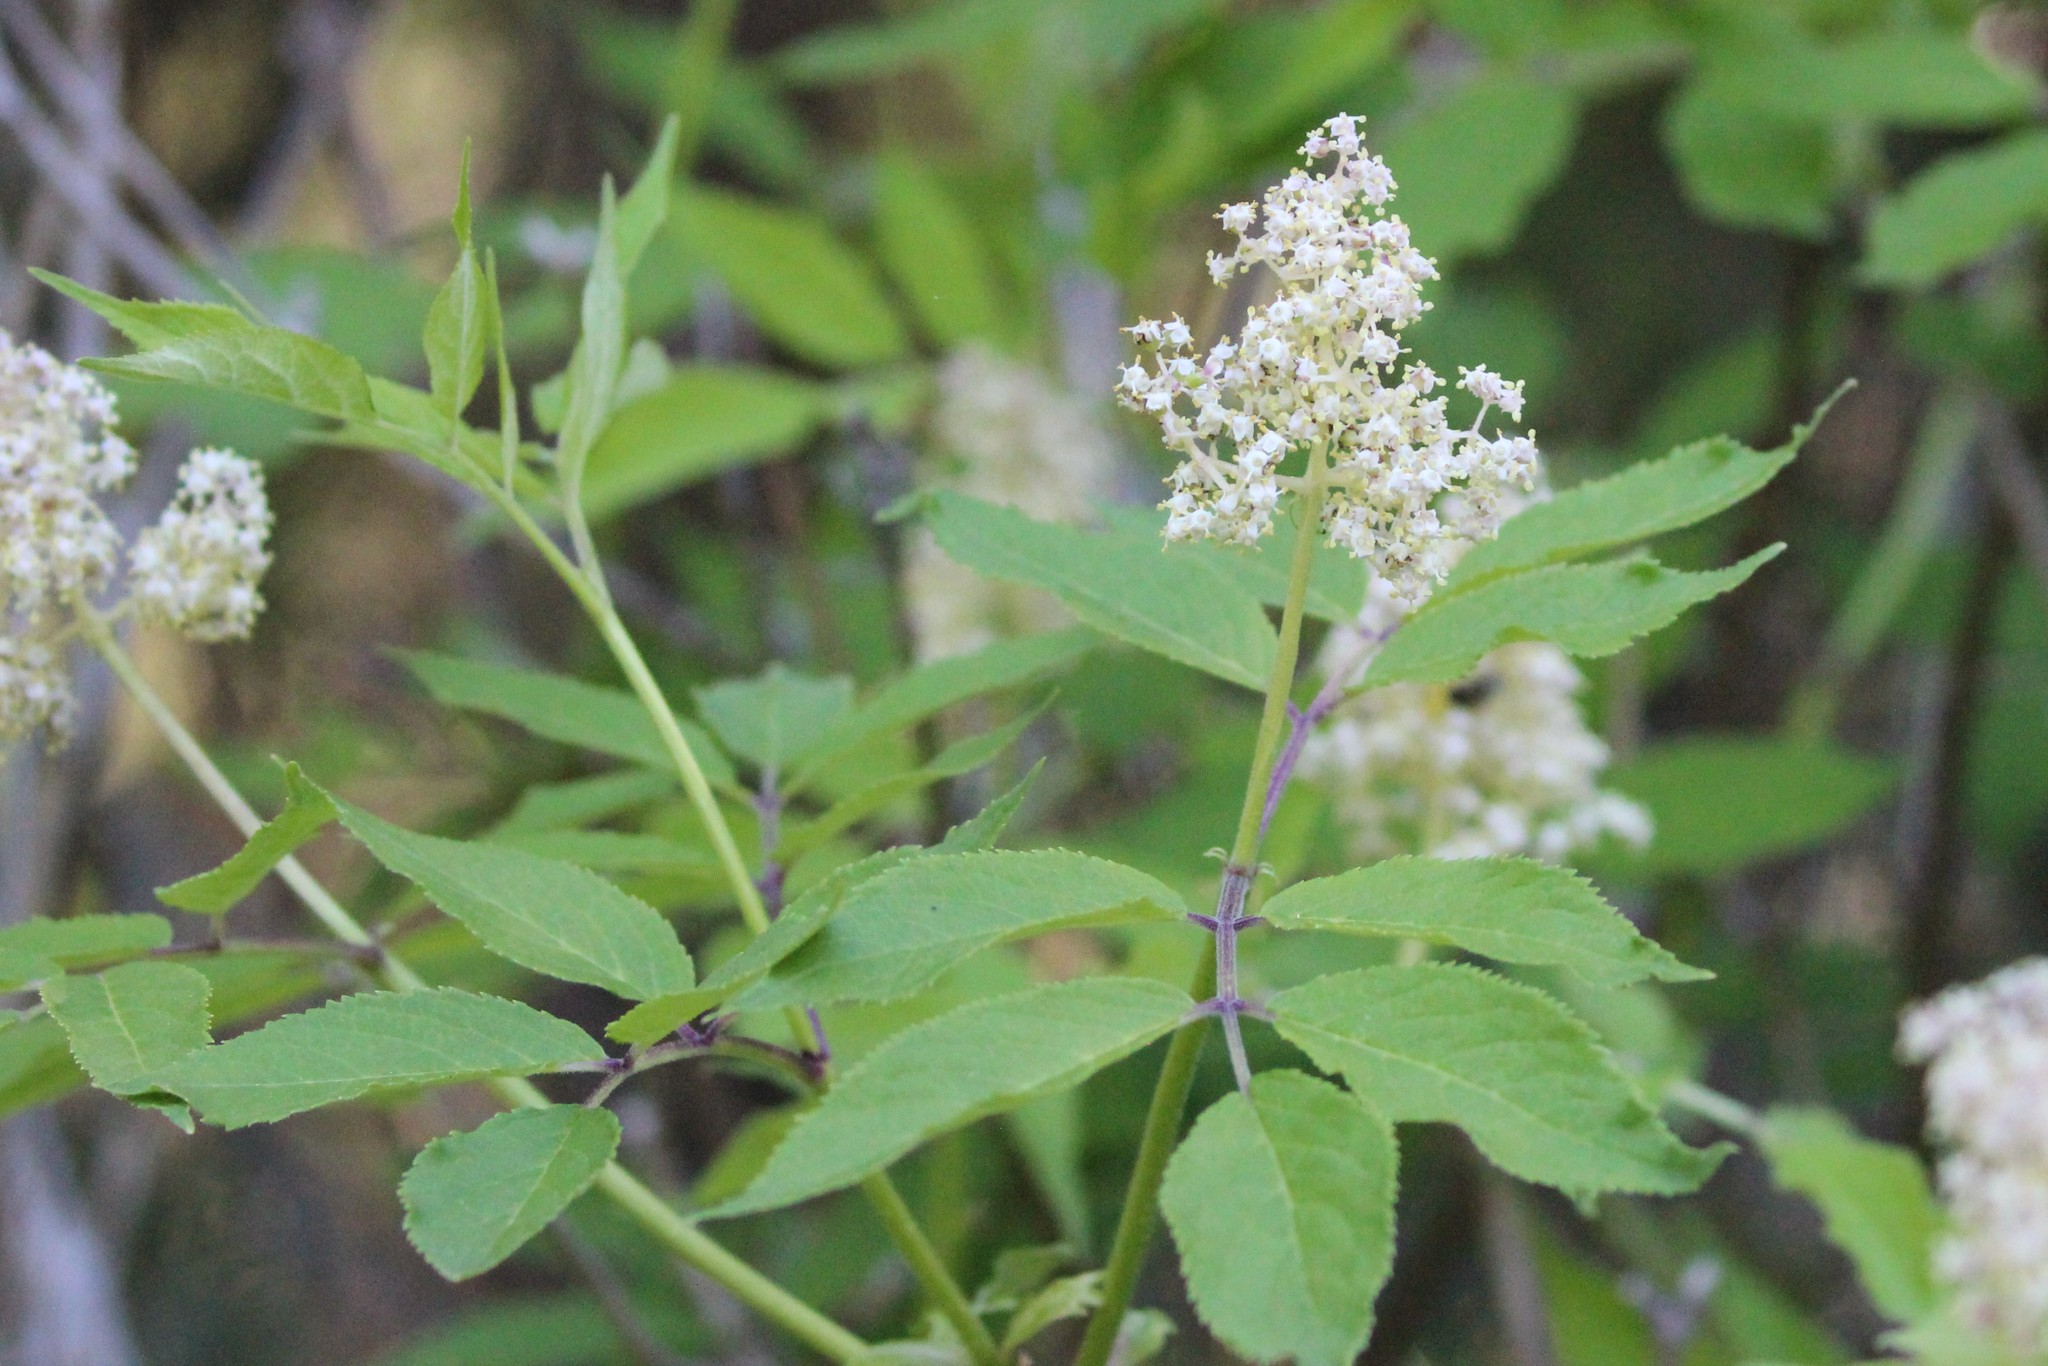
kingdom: Plantae
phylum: Tracheophyta
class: Magnoliopsida
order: Dipsacales
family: Viburnaceae
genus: Sambucus
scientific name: Sambucus racemosa
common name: Red-berried elder
